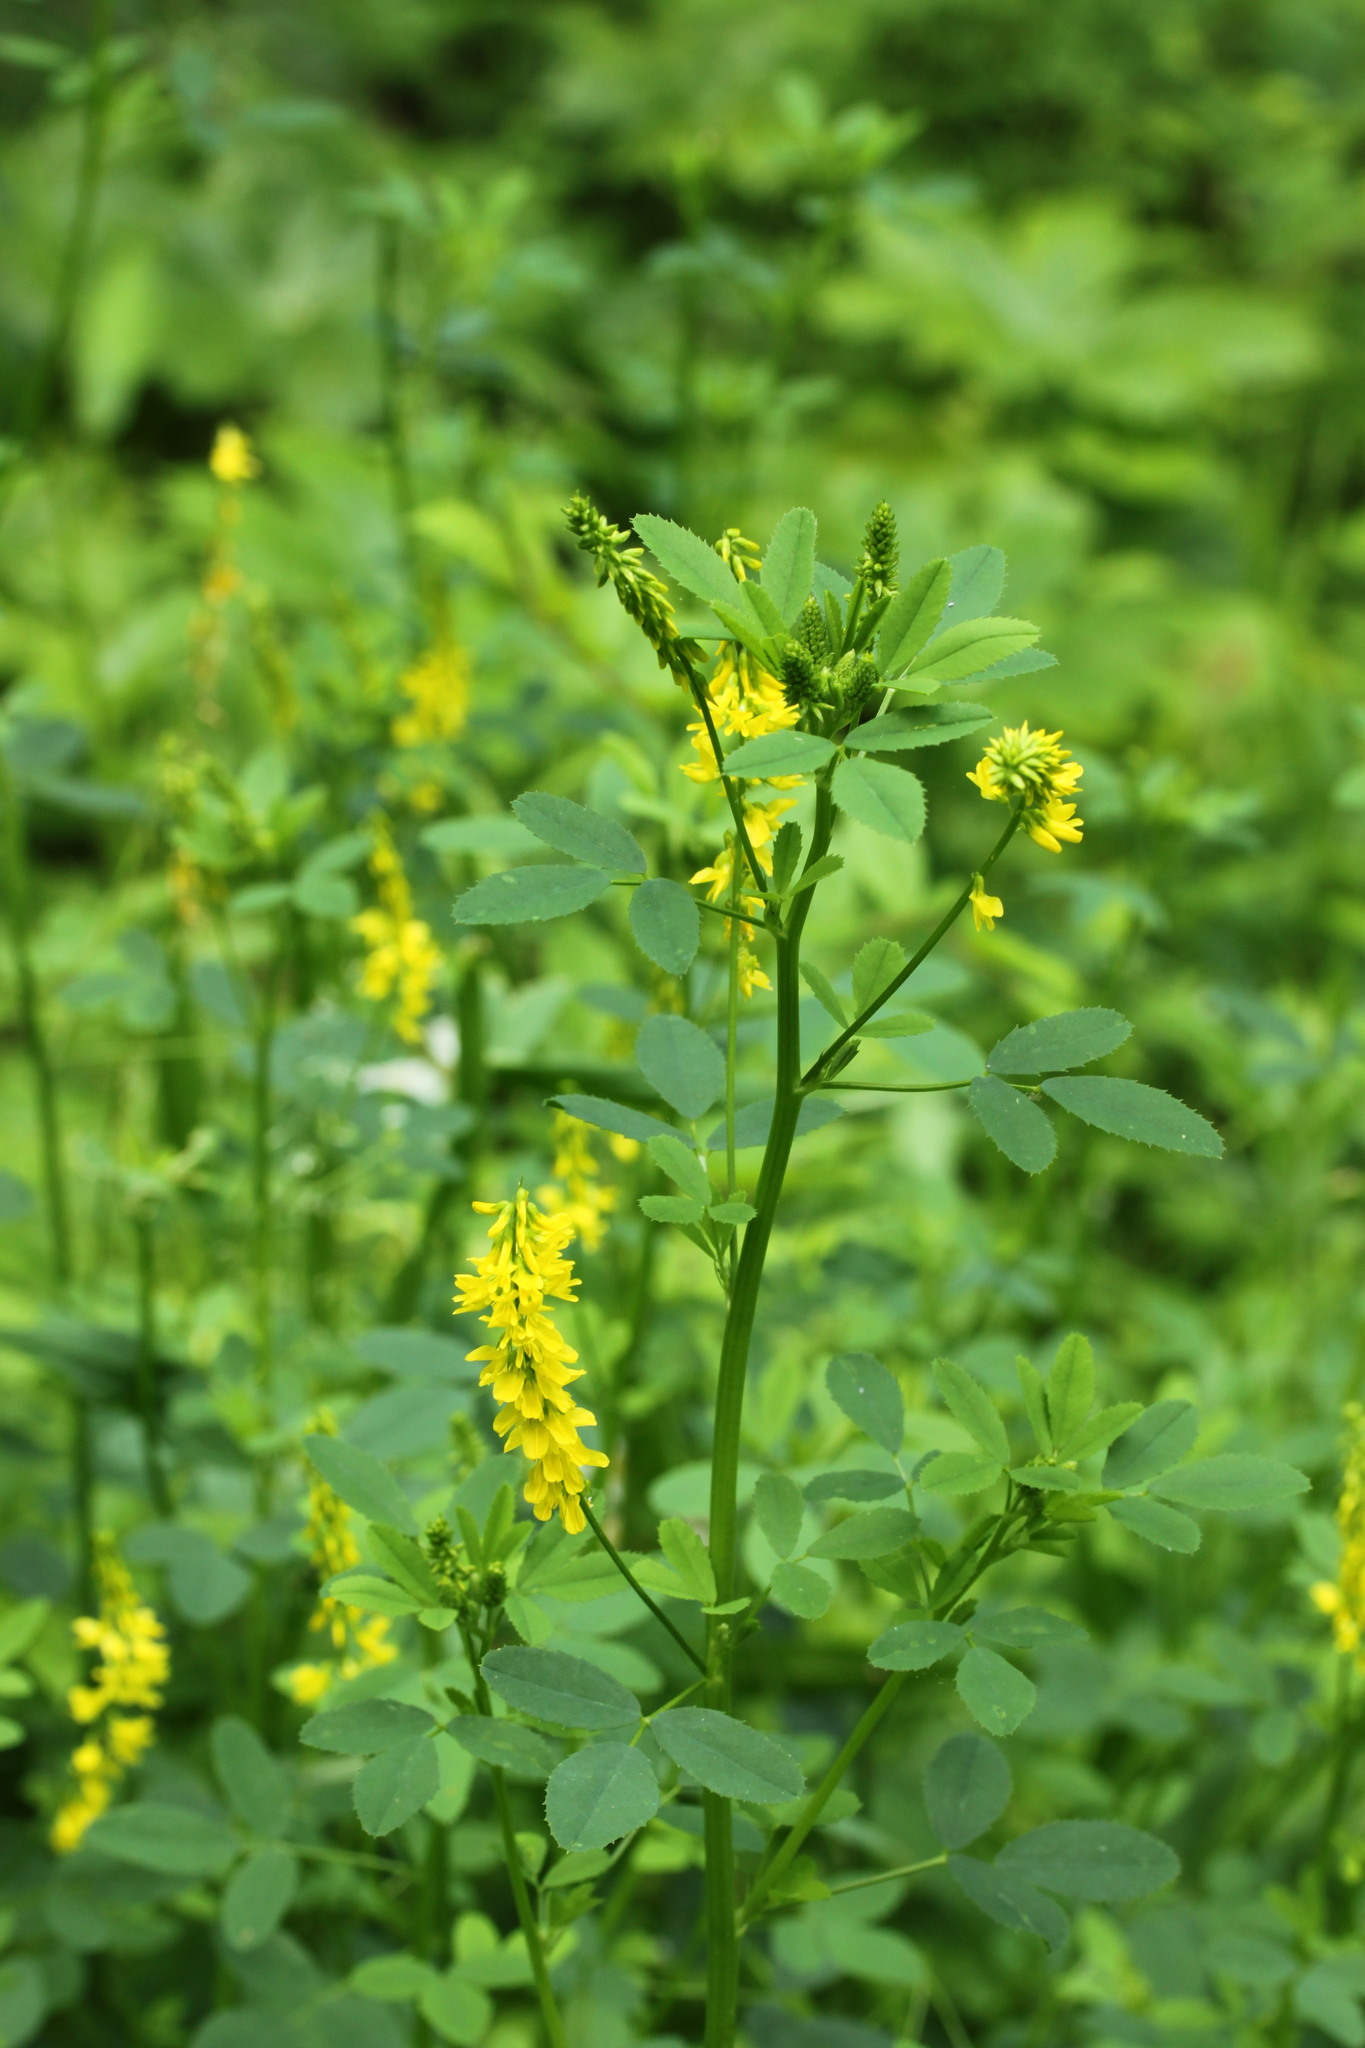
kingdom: Plantae
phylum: Tracheophyta
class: Magnoliopsida
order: Fabales
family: Fabaceae
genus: Melilotus
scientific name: Melilotus officinalis
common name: Sweetclover
